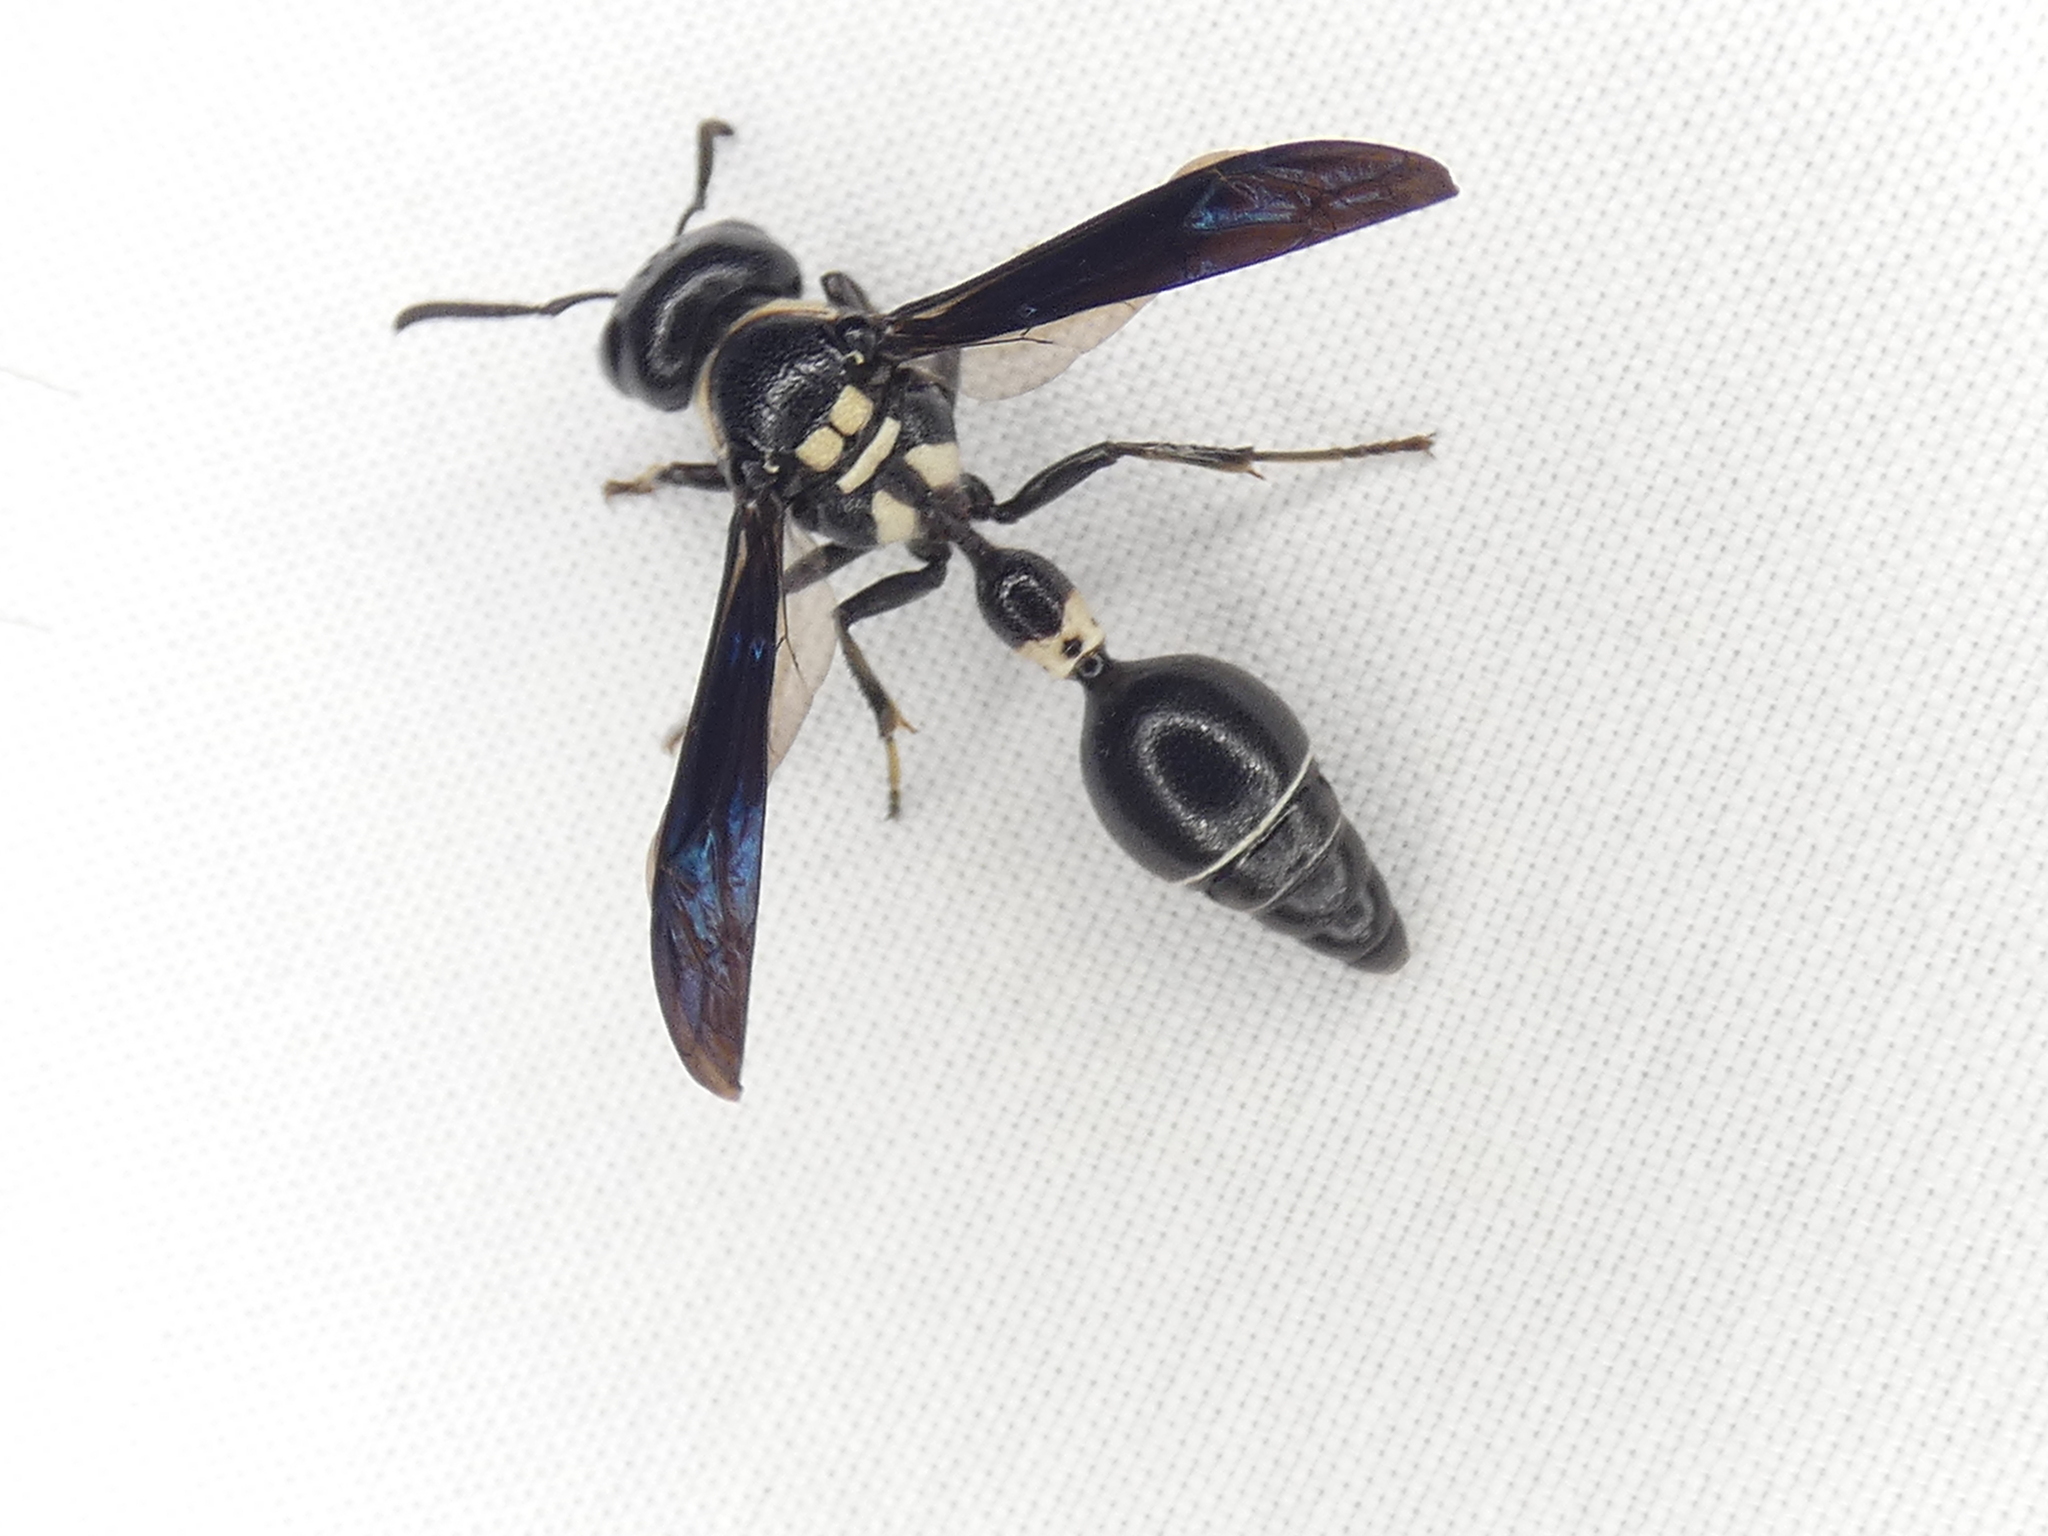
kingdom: Animalia
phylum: Arthropoda
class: Insecta
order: Hymenoptera
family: Eumenidae
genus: Zethus
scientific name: Zethus spinipes
